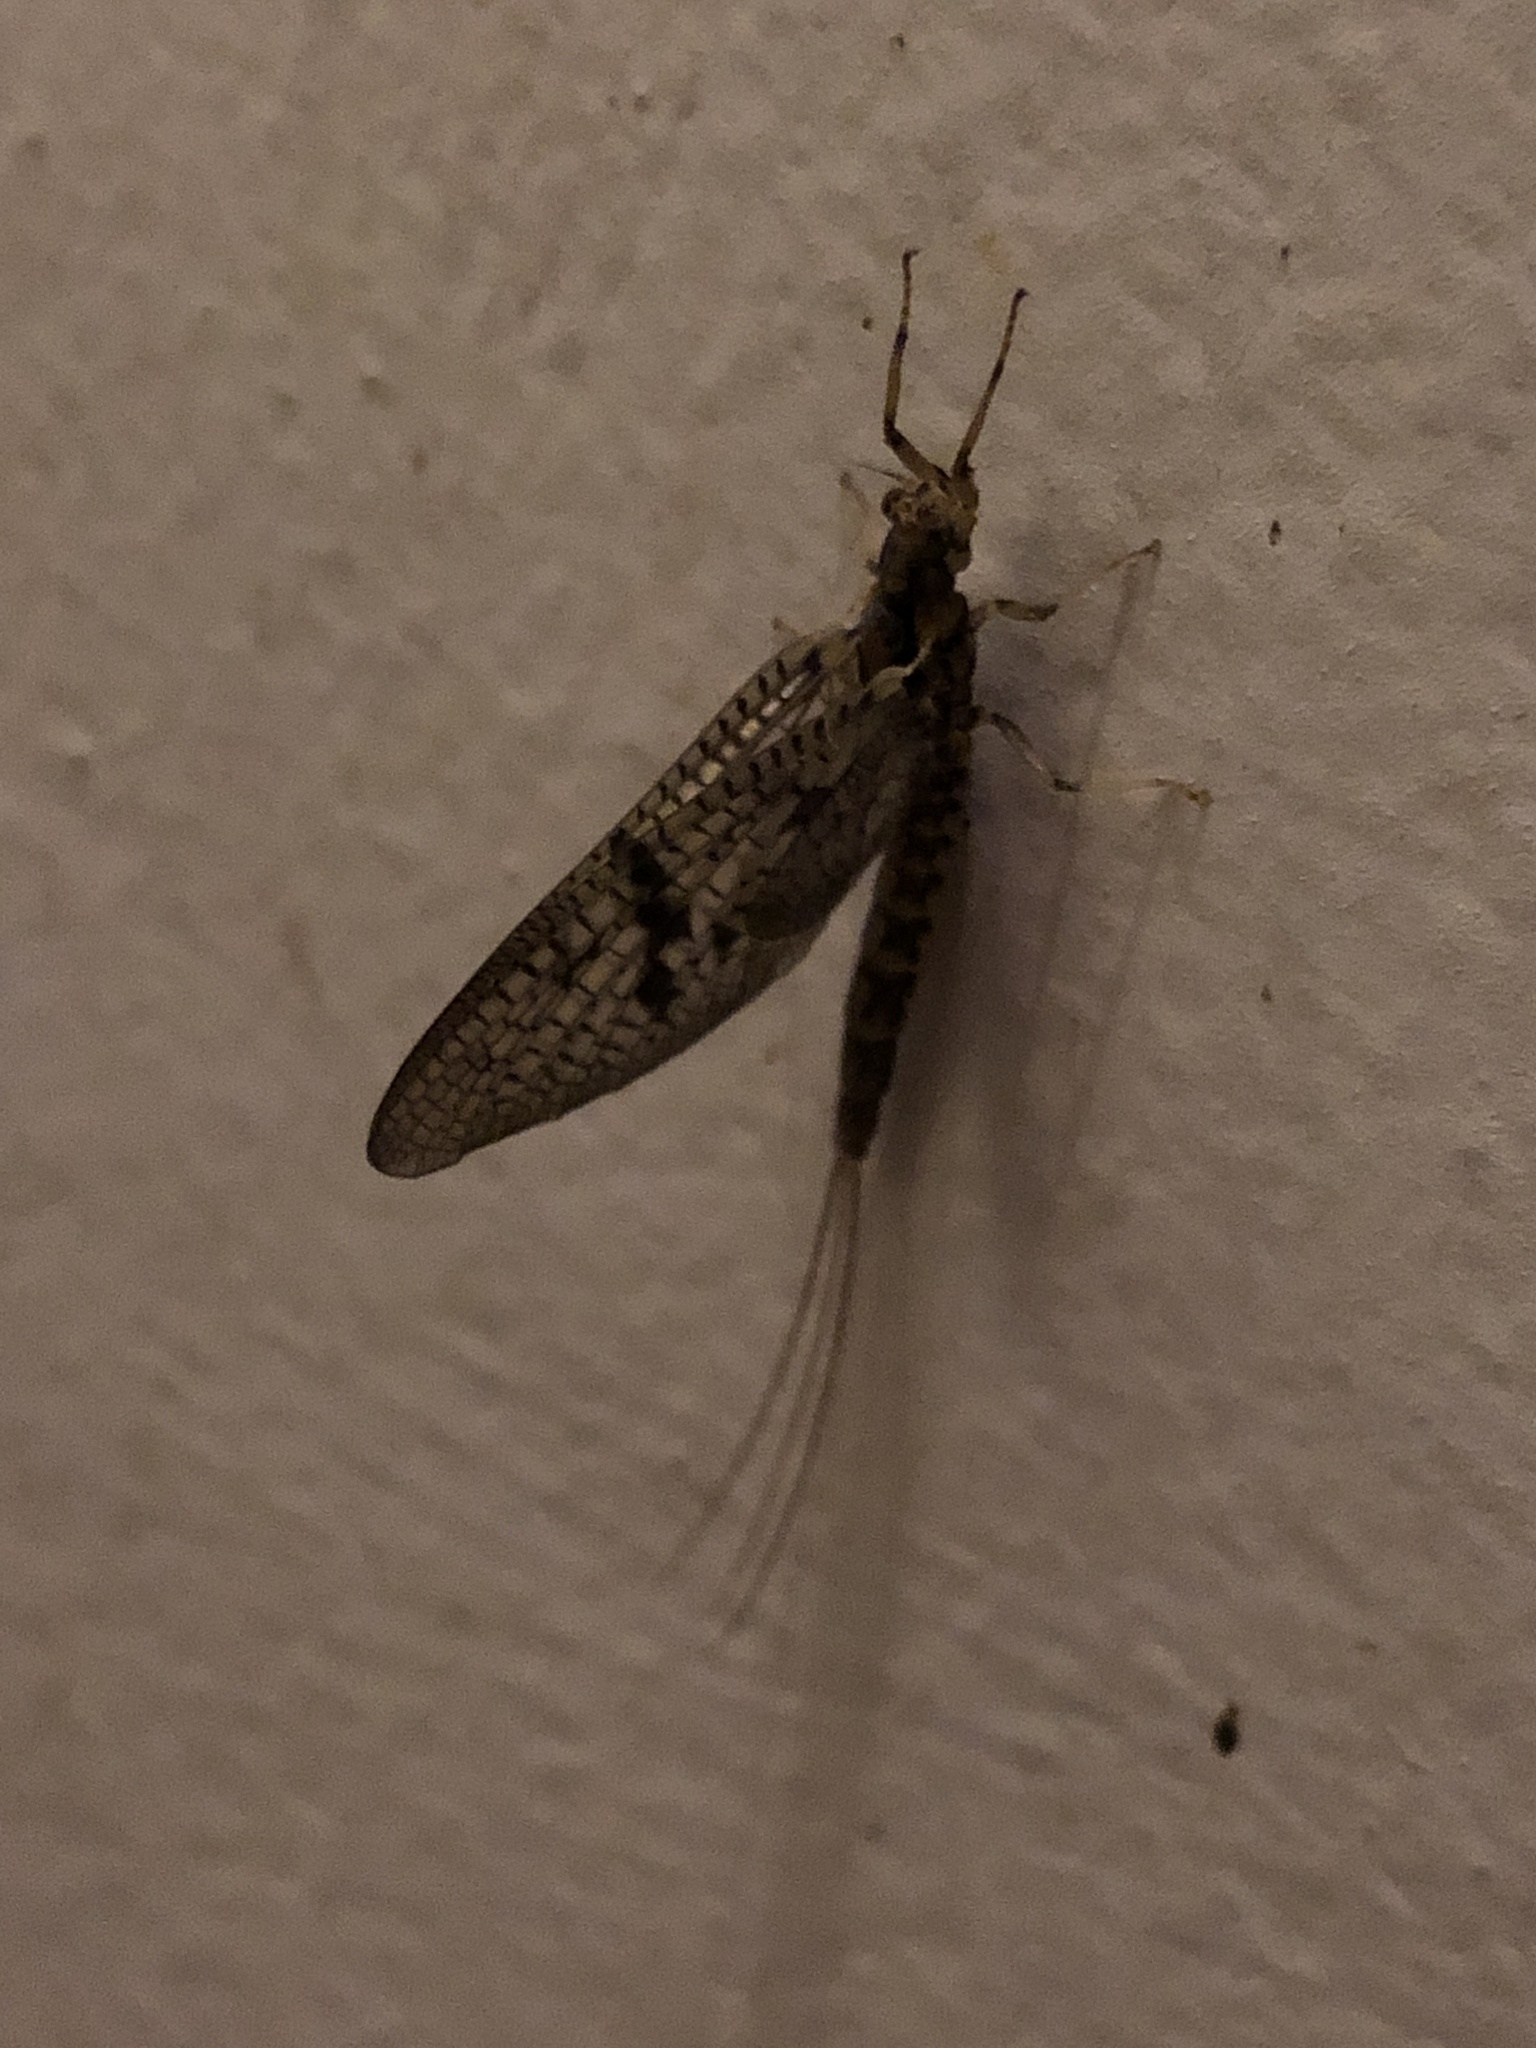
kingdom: Animalia
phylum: Arthropoda
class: Insecta
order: Ephemeroptera
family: Ephemeridae
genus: Ephemera
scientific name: Ephemera simulans
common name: Brown drake
